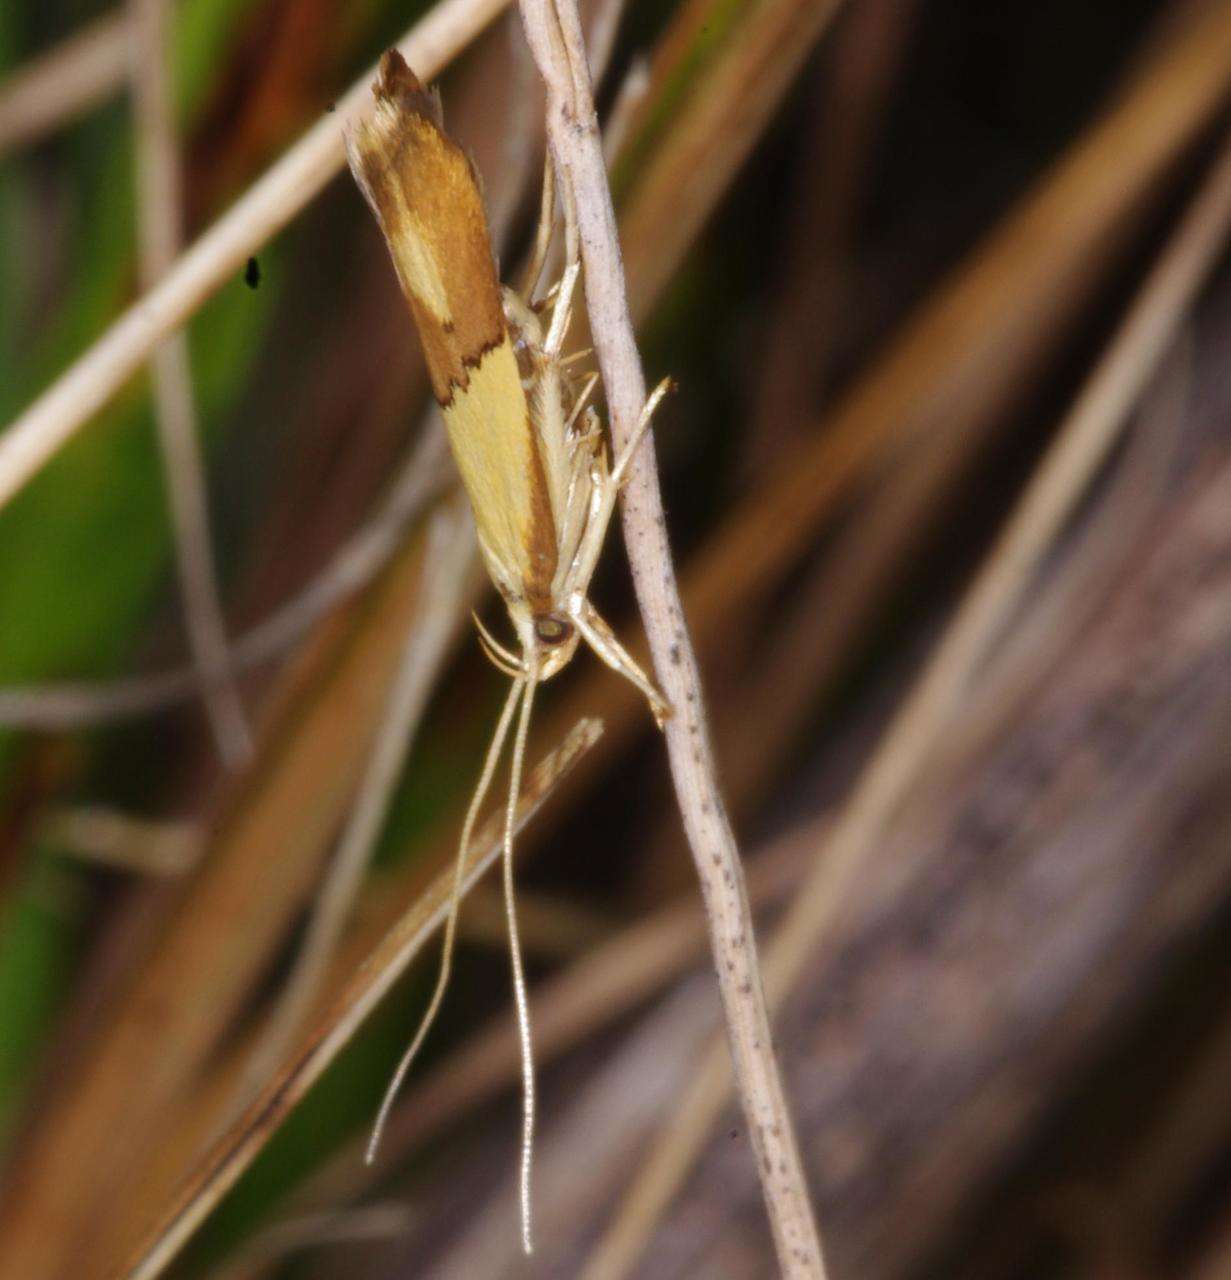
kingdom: Animalia
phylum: Arthropoda
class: Insecta
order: Lepidoptera
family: Lecithoceridae
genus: Crocanthes
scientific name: Crocanthes glycina
